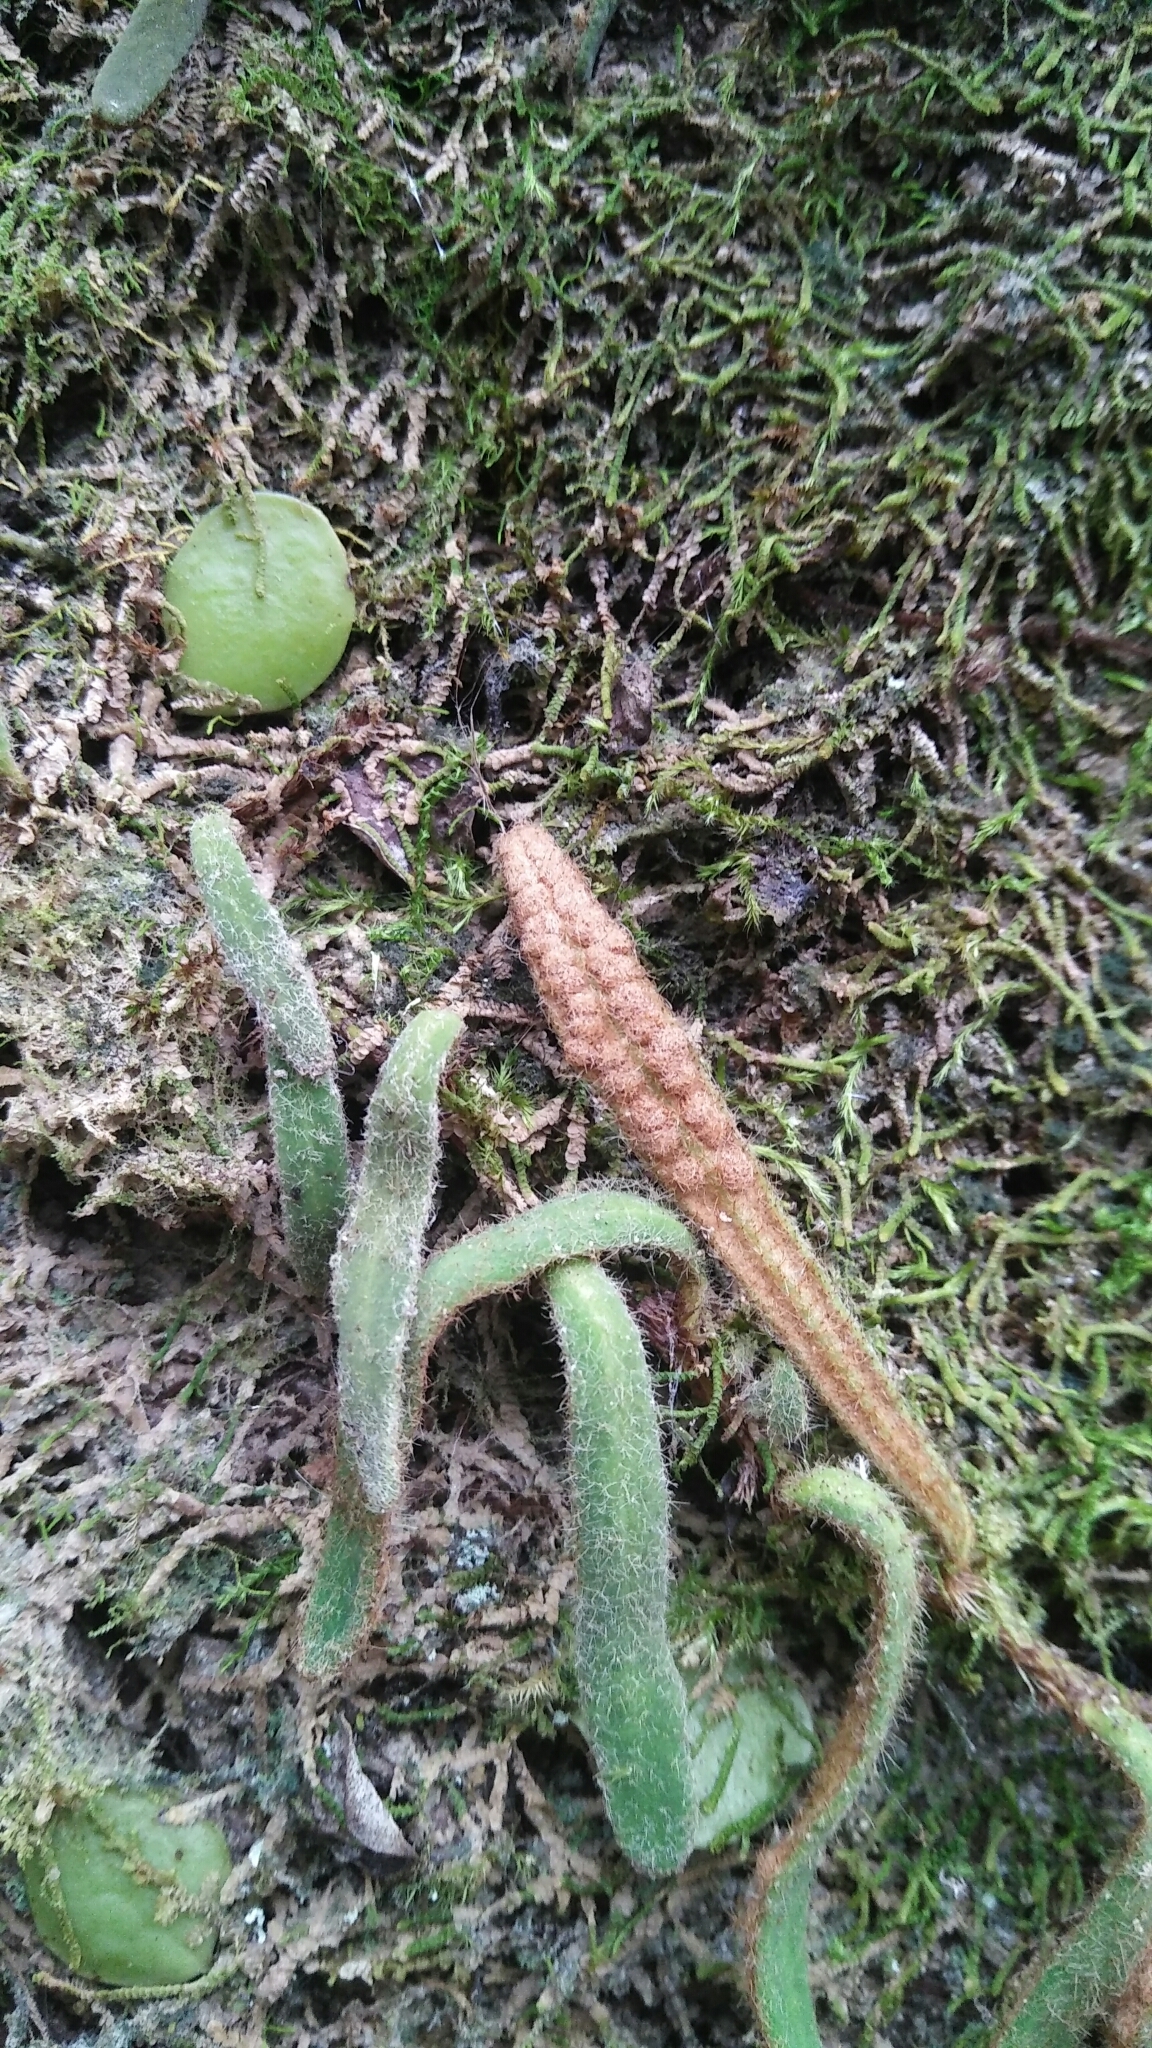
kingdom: Plantae
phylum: Tracheophyta
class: Polypodiopsida
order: Polypodiales
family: Polypodiaceae
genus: Pyrrosia
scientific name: Pyrrosia linearifolia
